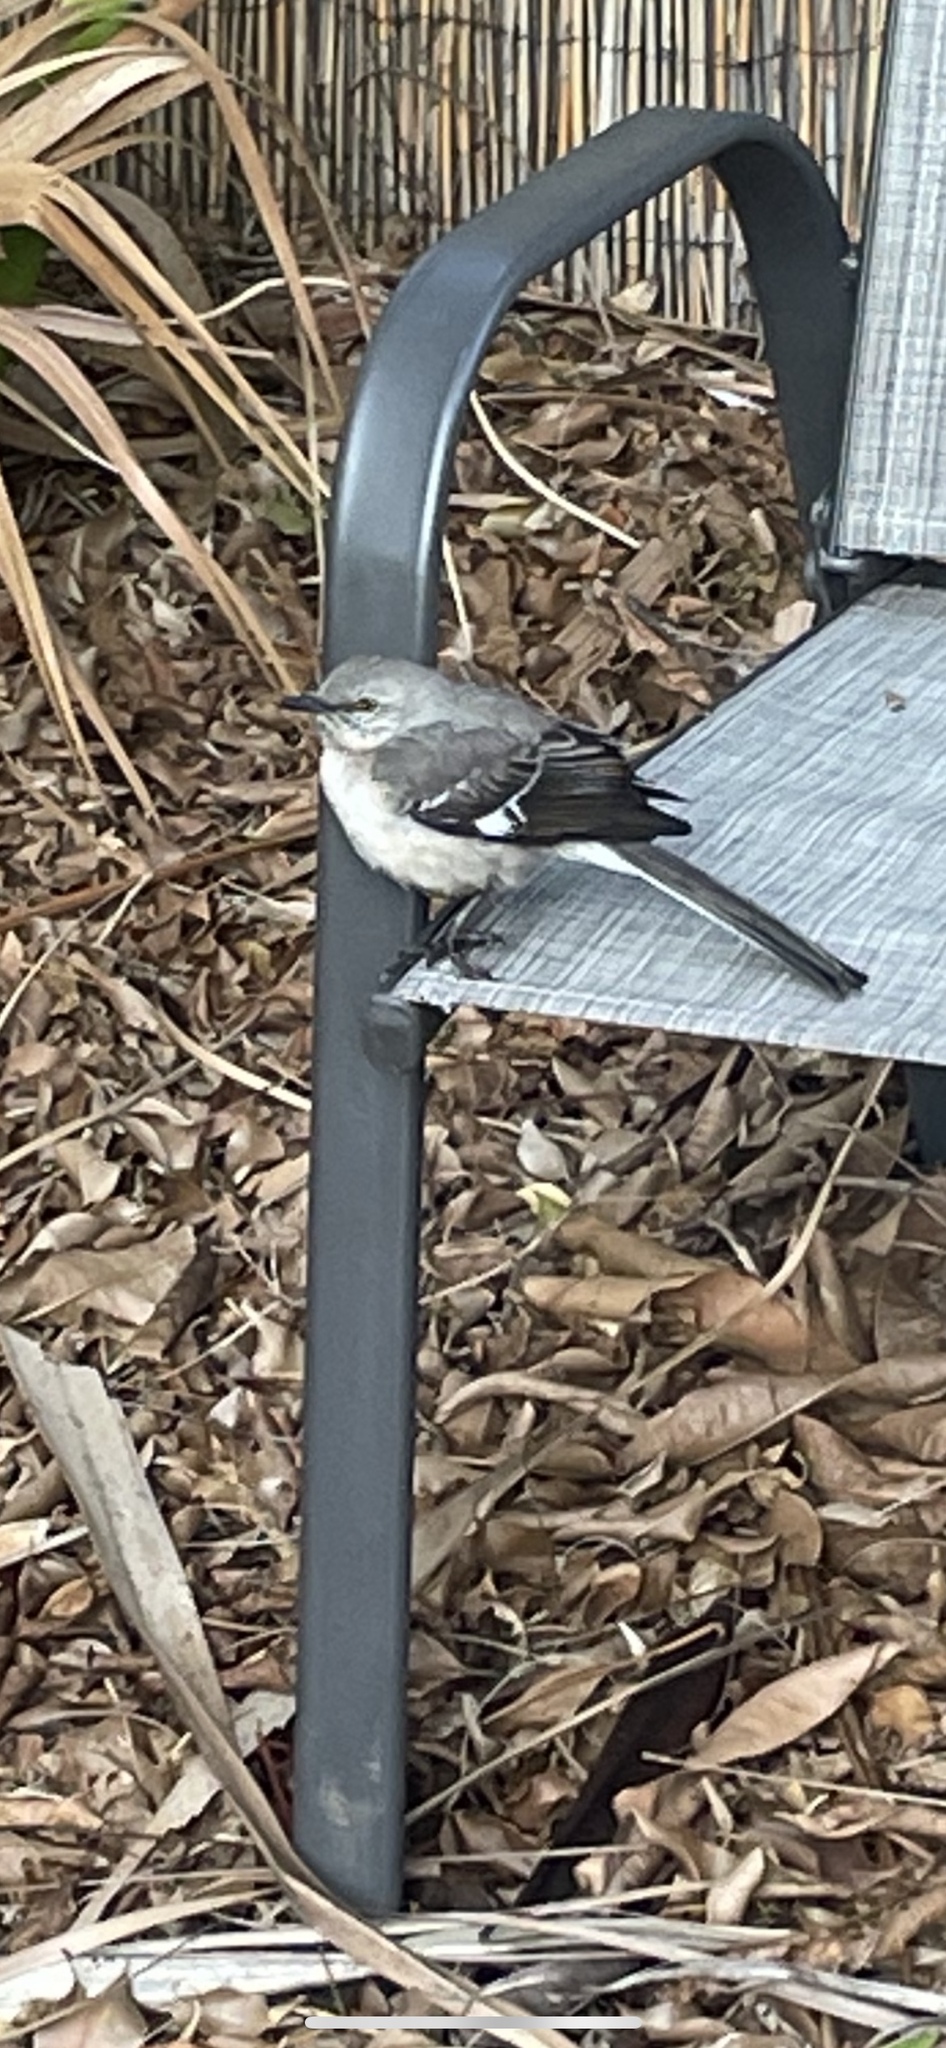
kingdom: Animalia
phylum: Chordata
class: Aves
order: Passeriformes
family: Mimidae
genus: Mimus
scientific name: Mimus polyglottos
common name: Northern mockingbird
